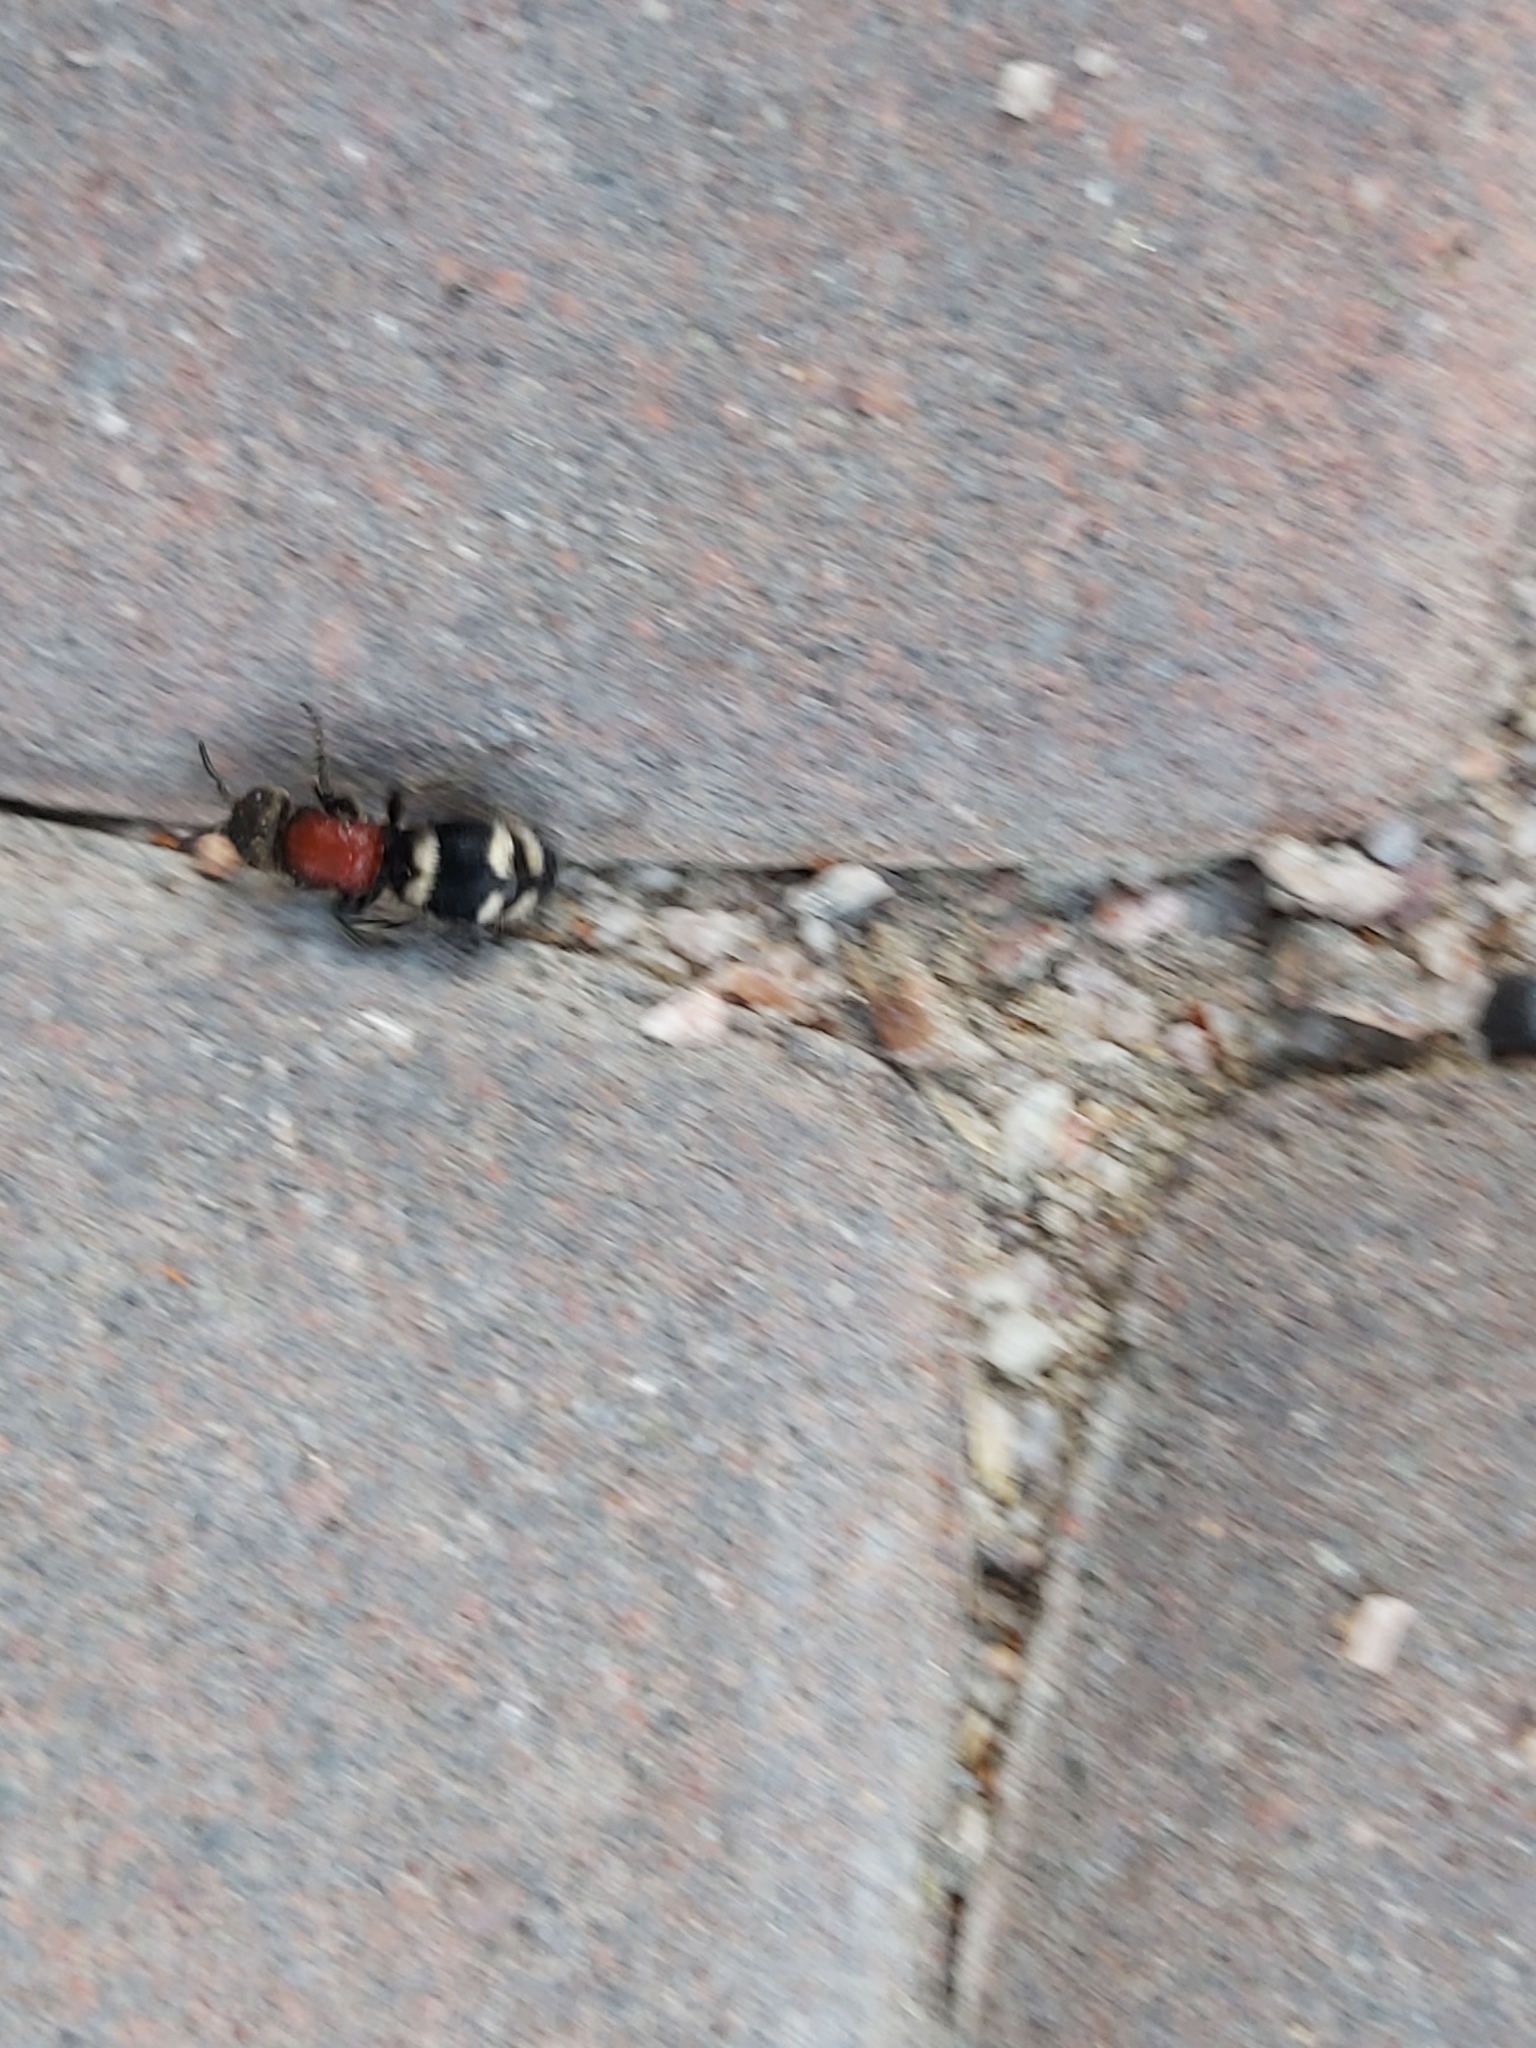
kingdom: Animalia
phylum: Arthropoda
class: Insecta
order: Hymenoptera
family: Mutillidae
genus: Mutilla
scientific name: Mutilla europaea
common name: Large velvet ant
